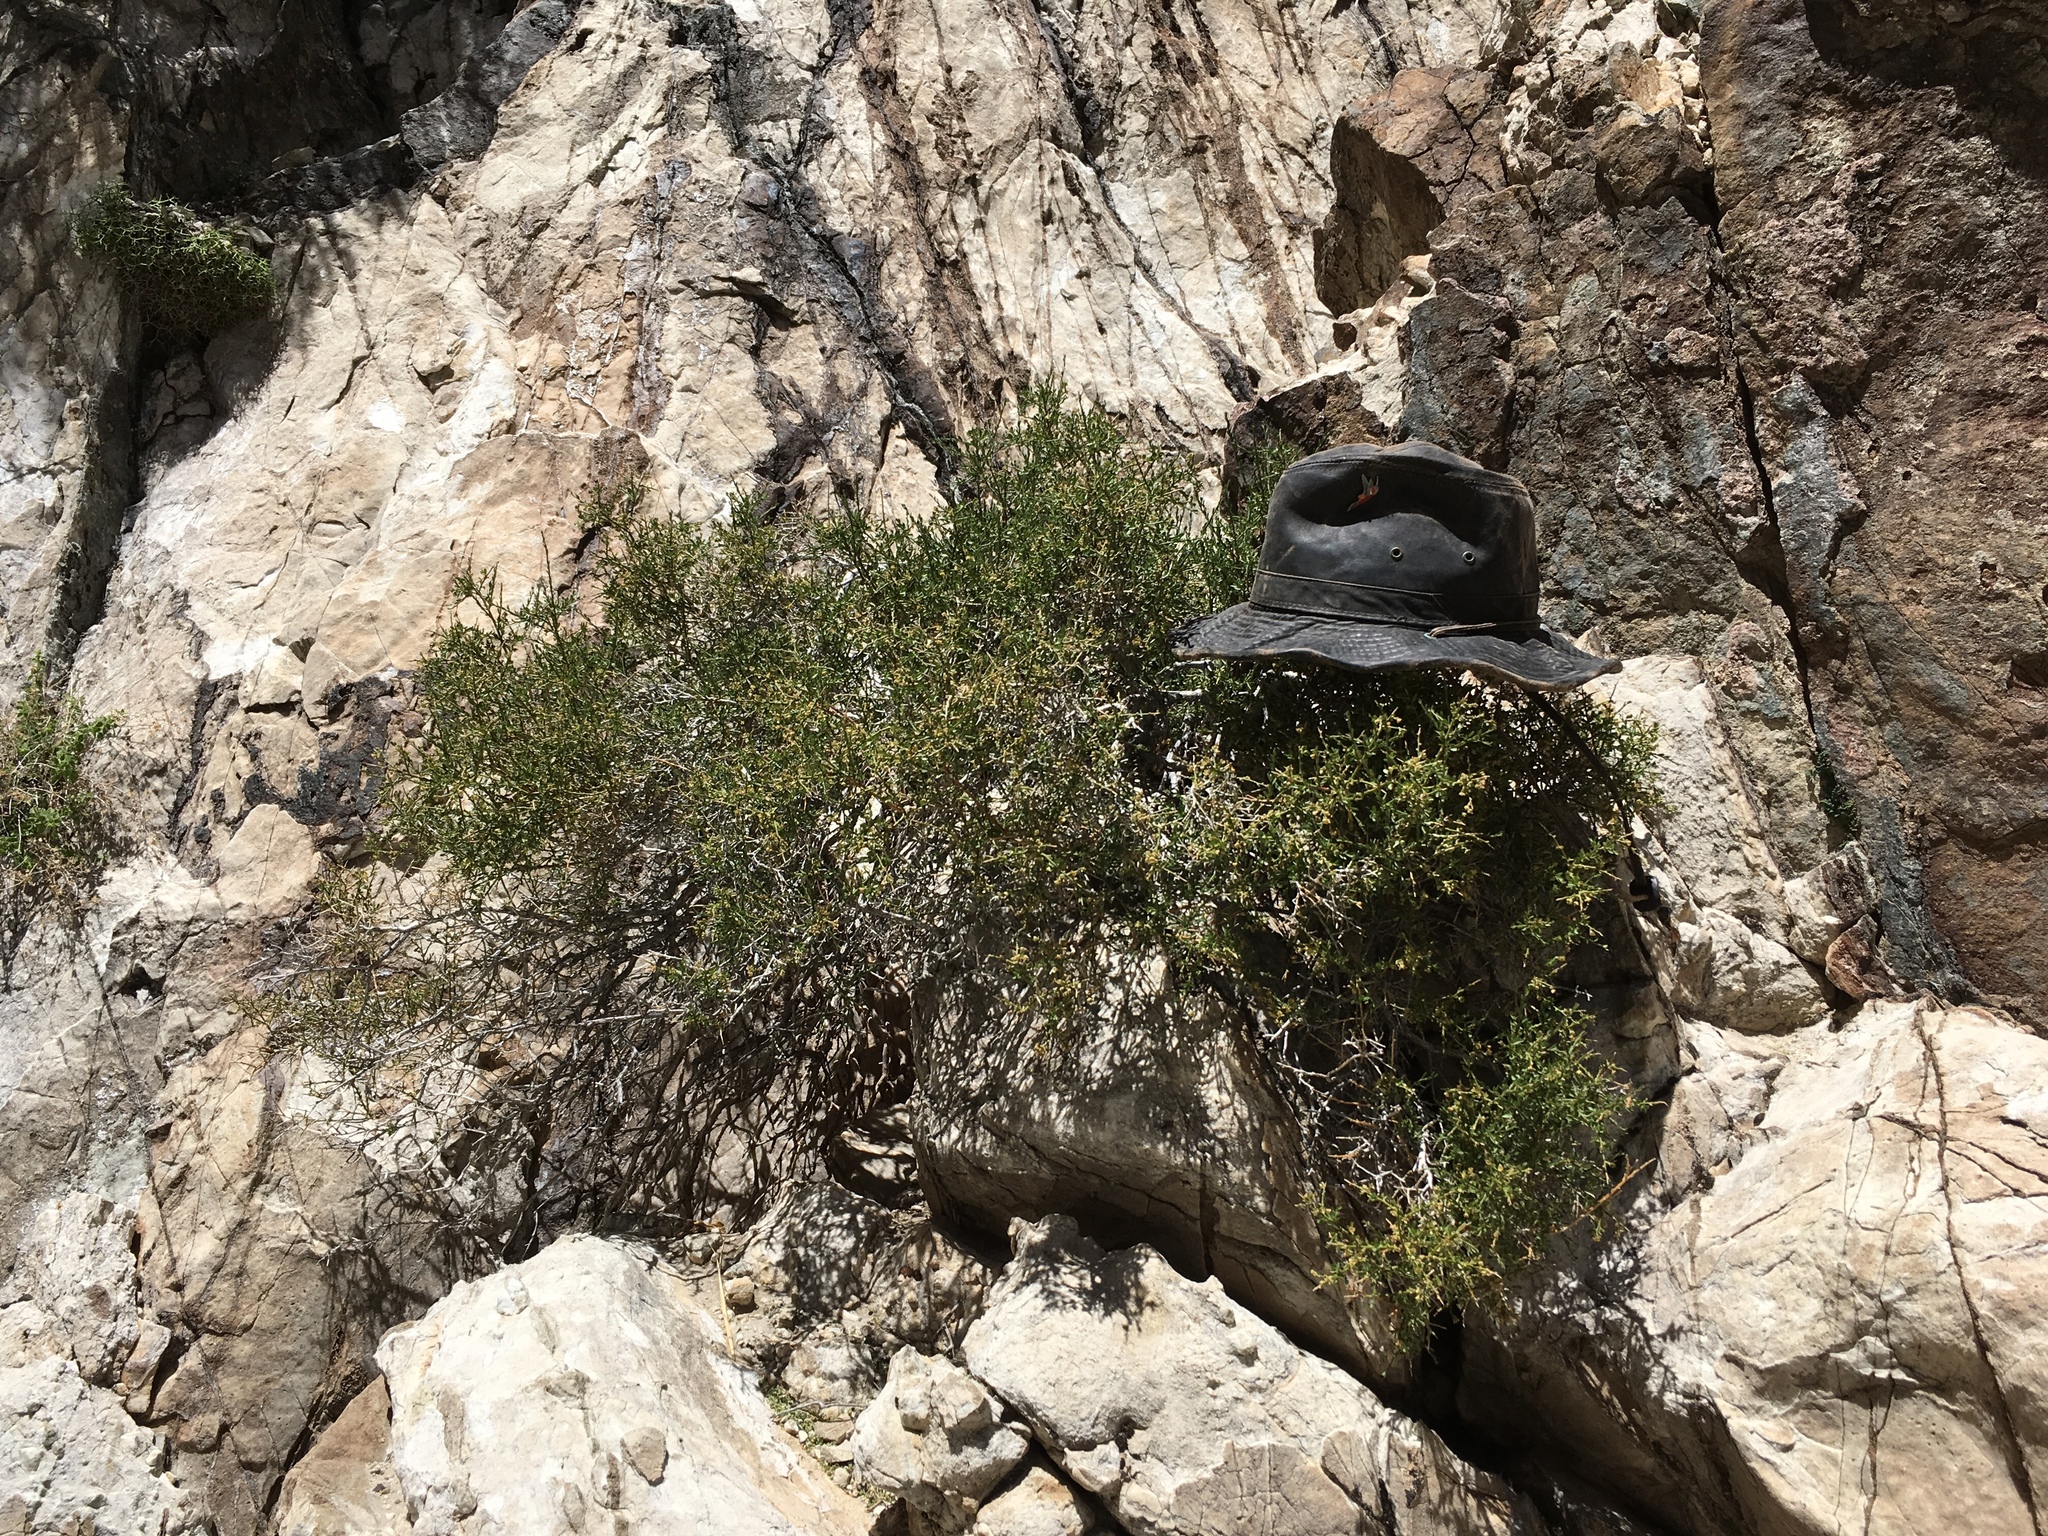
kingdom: Plantae
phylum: Tracheophyta
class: Magnoliopsida
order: Crossosomatales
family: Crossosomataceae
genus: Glossopetalon
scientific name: Glossopetalon spinescens
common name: Spring greasebush
